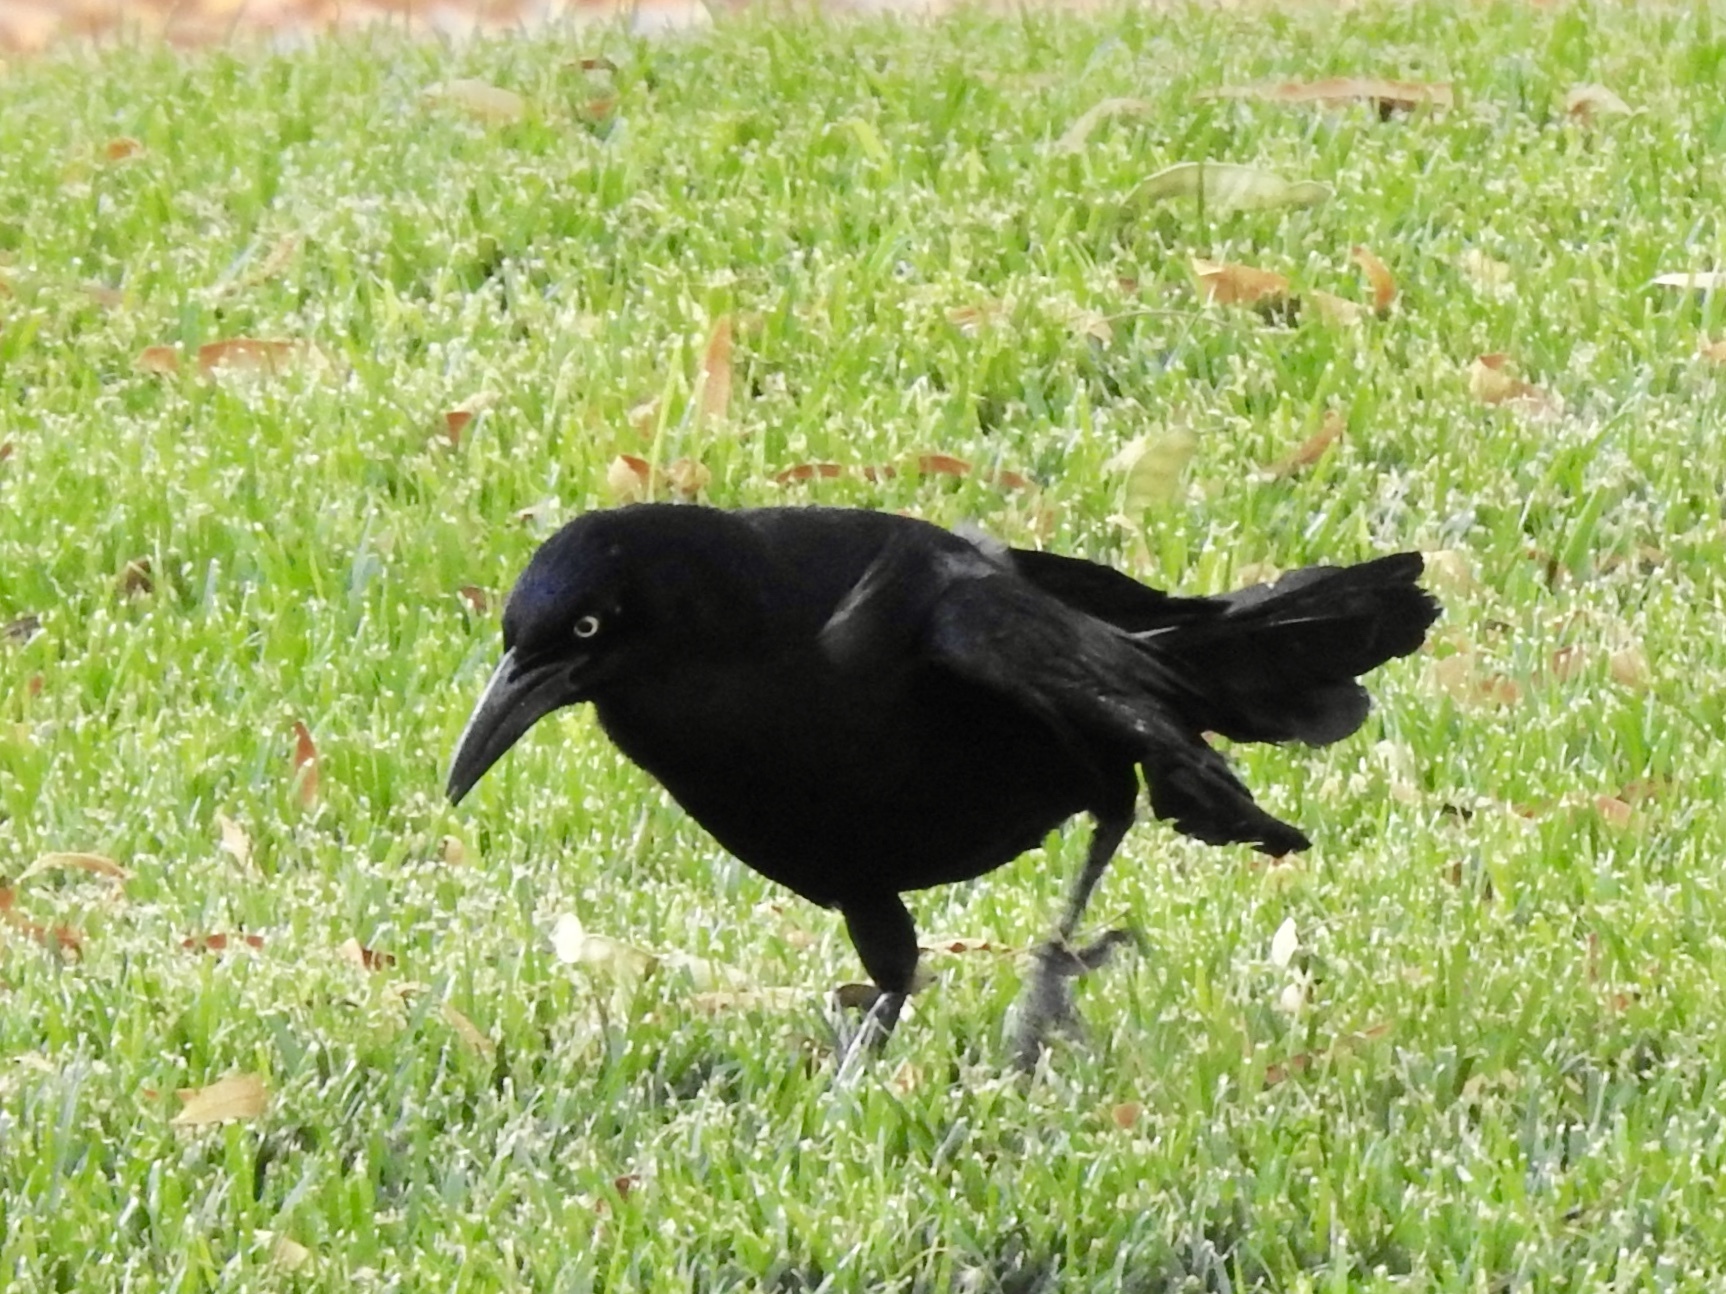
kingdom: Animalia
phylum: Chordata
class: Aves
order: Passeriformes
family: Icteridae
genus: Quiscalus
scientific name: Quiscalus mexicanus
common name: Great-tailed grackle
